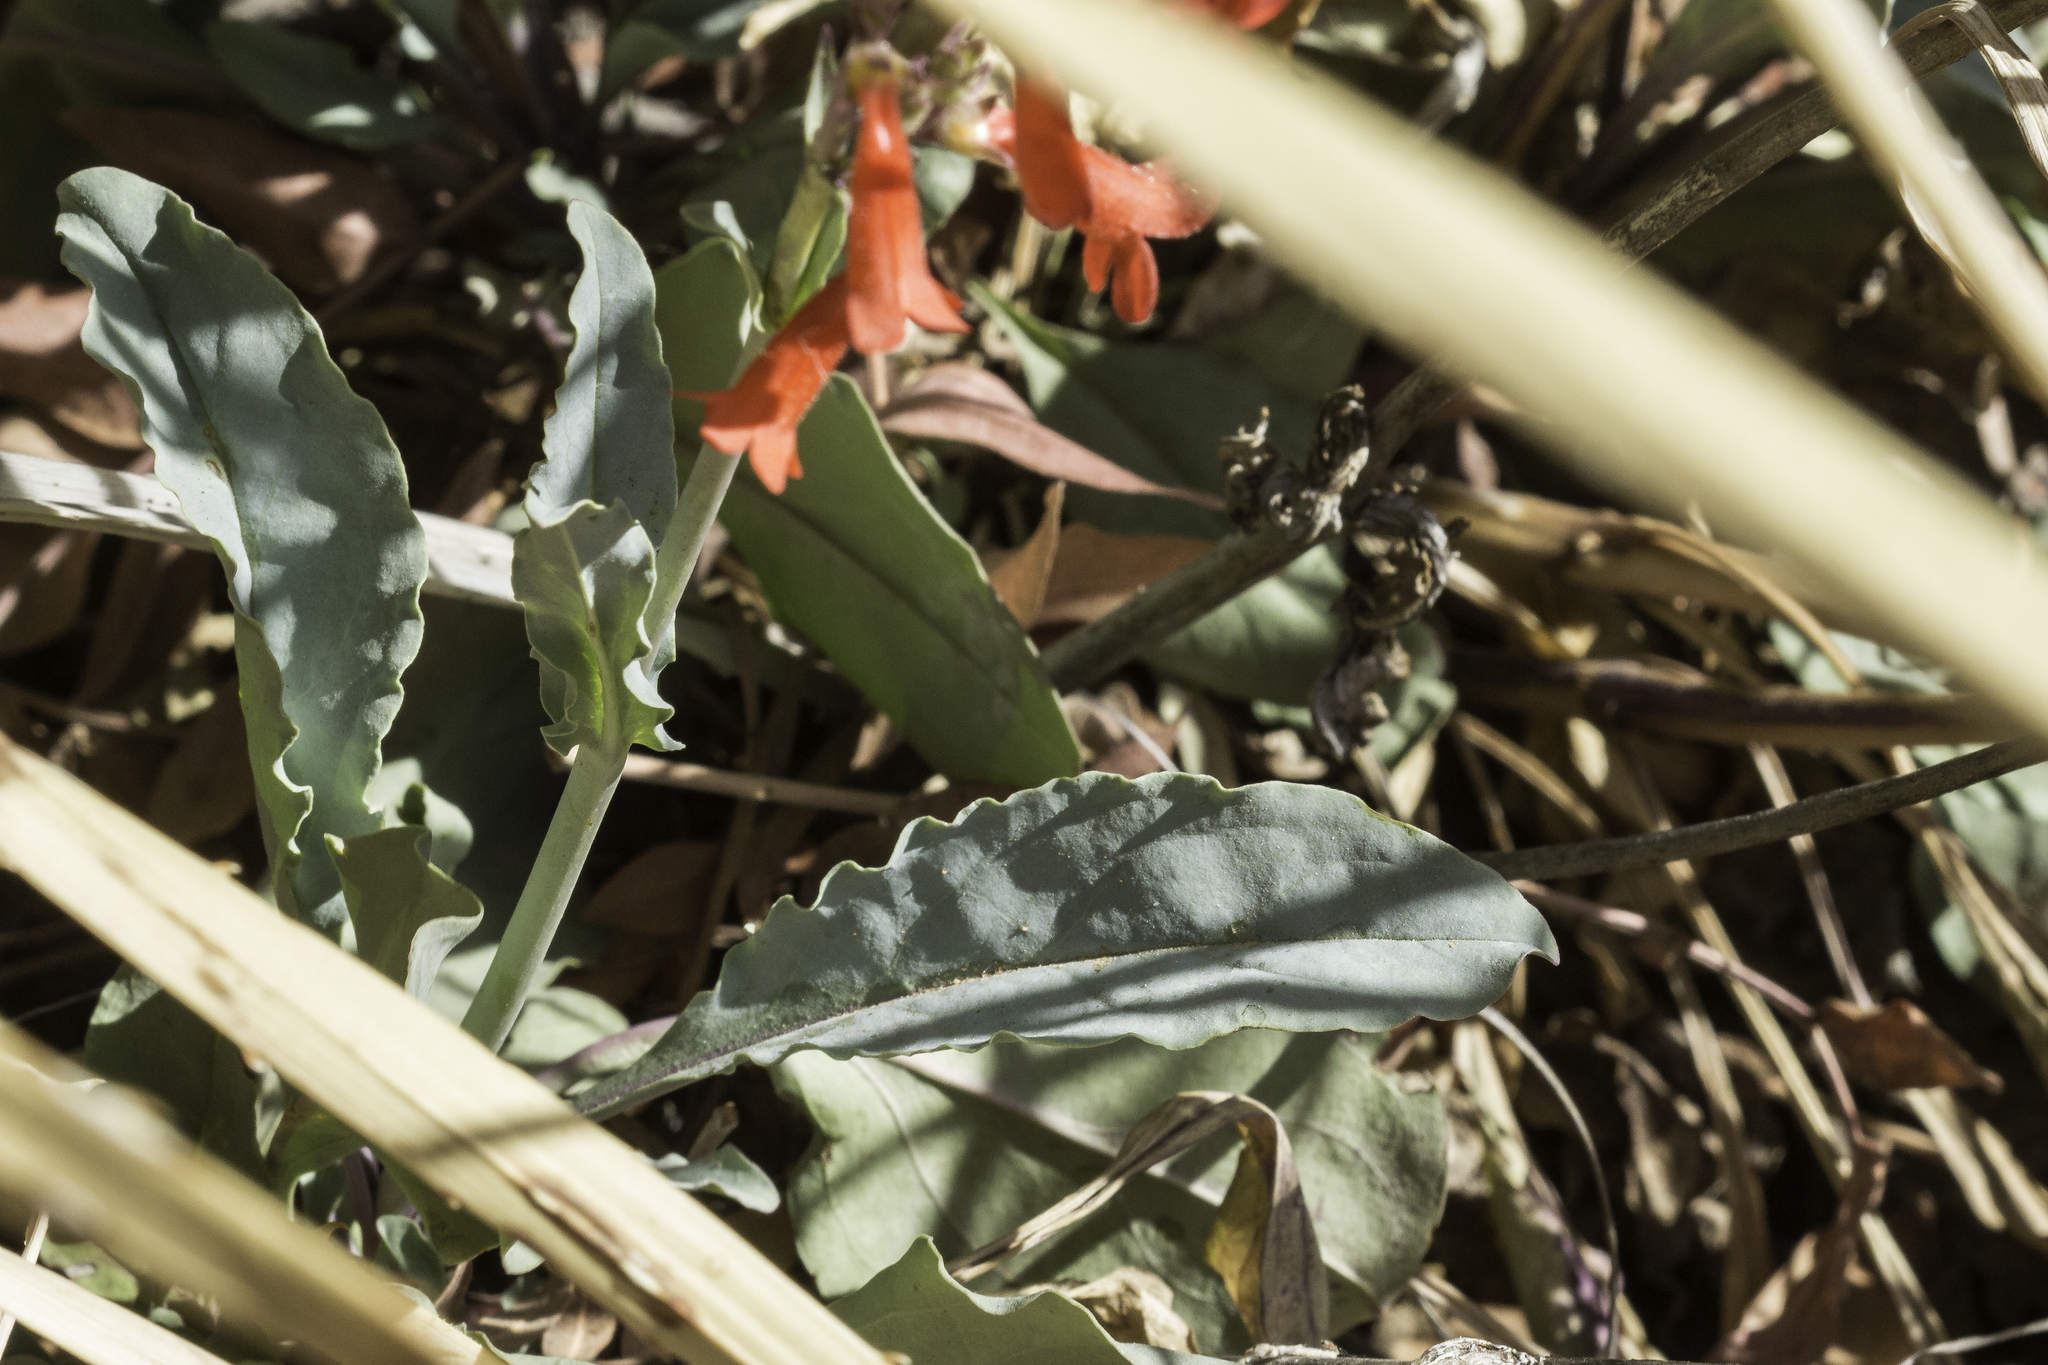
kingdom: Plantae
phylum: Tracheophyta
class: Magnoliopsida
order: Lamiales
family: Plantaginaceae
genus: Penstemon
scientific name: Penstemon alamosensis
